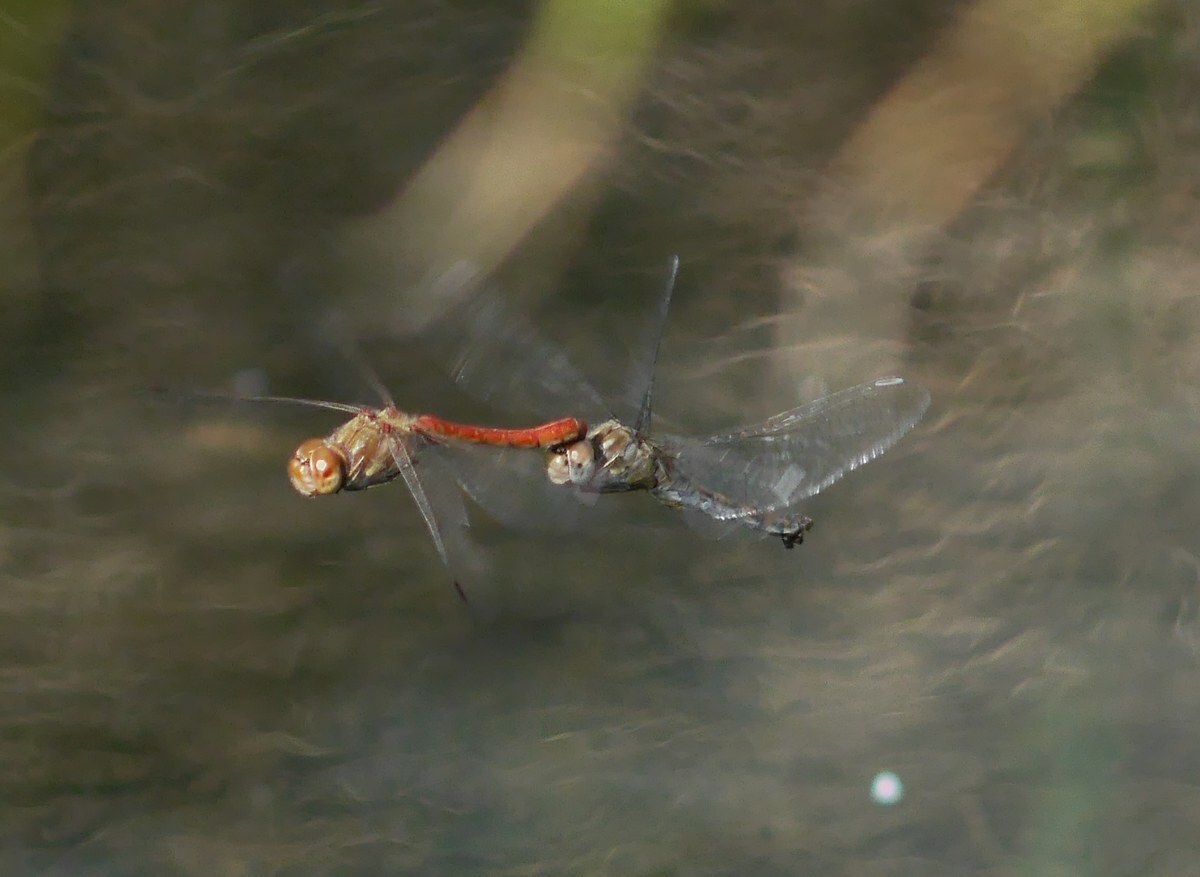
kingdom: Animalia
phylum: Arthropoda
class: Insecta
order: Odonata
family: Libellulidae
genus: Sympetrum
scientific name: Sympetrum striolatum
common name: Common darter
